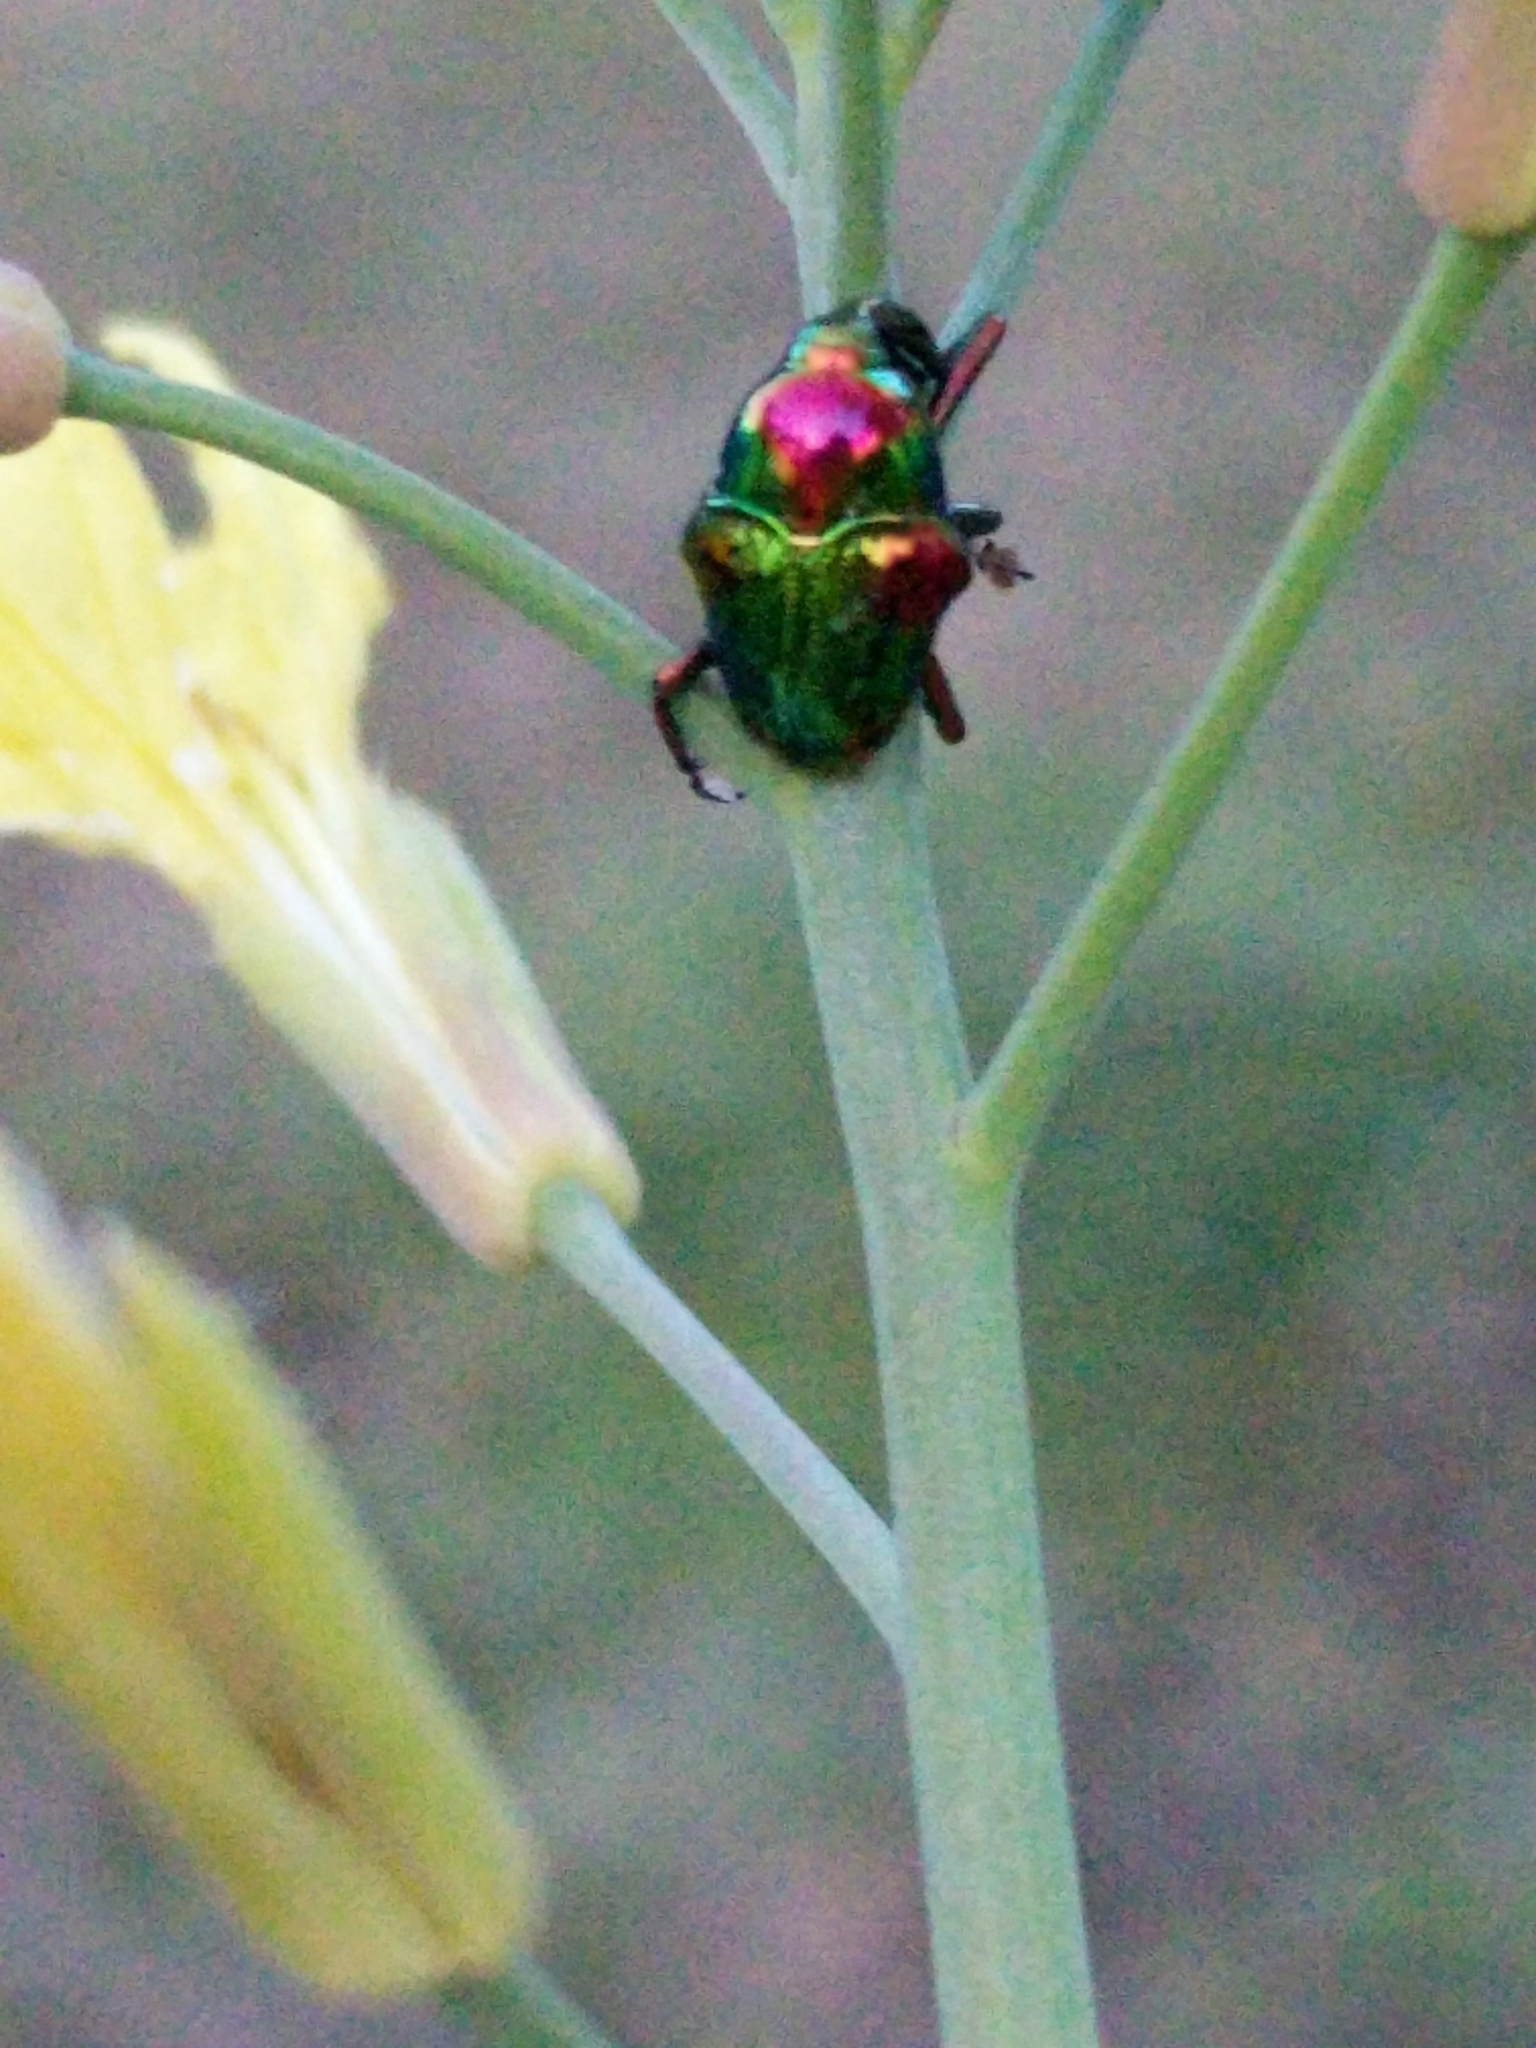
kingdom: Animalia
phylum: Arthropoda
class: Insecta
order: Coleoptera
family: Eurhynchidae
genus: Eurhinus
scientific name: Eurhinus magnificus
